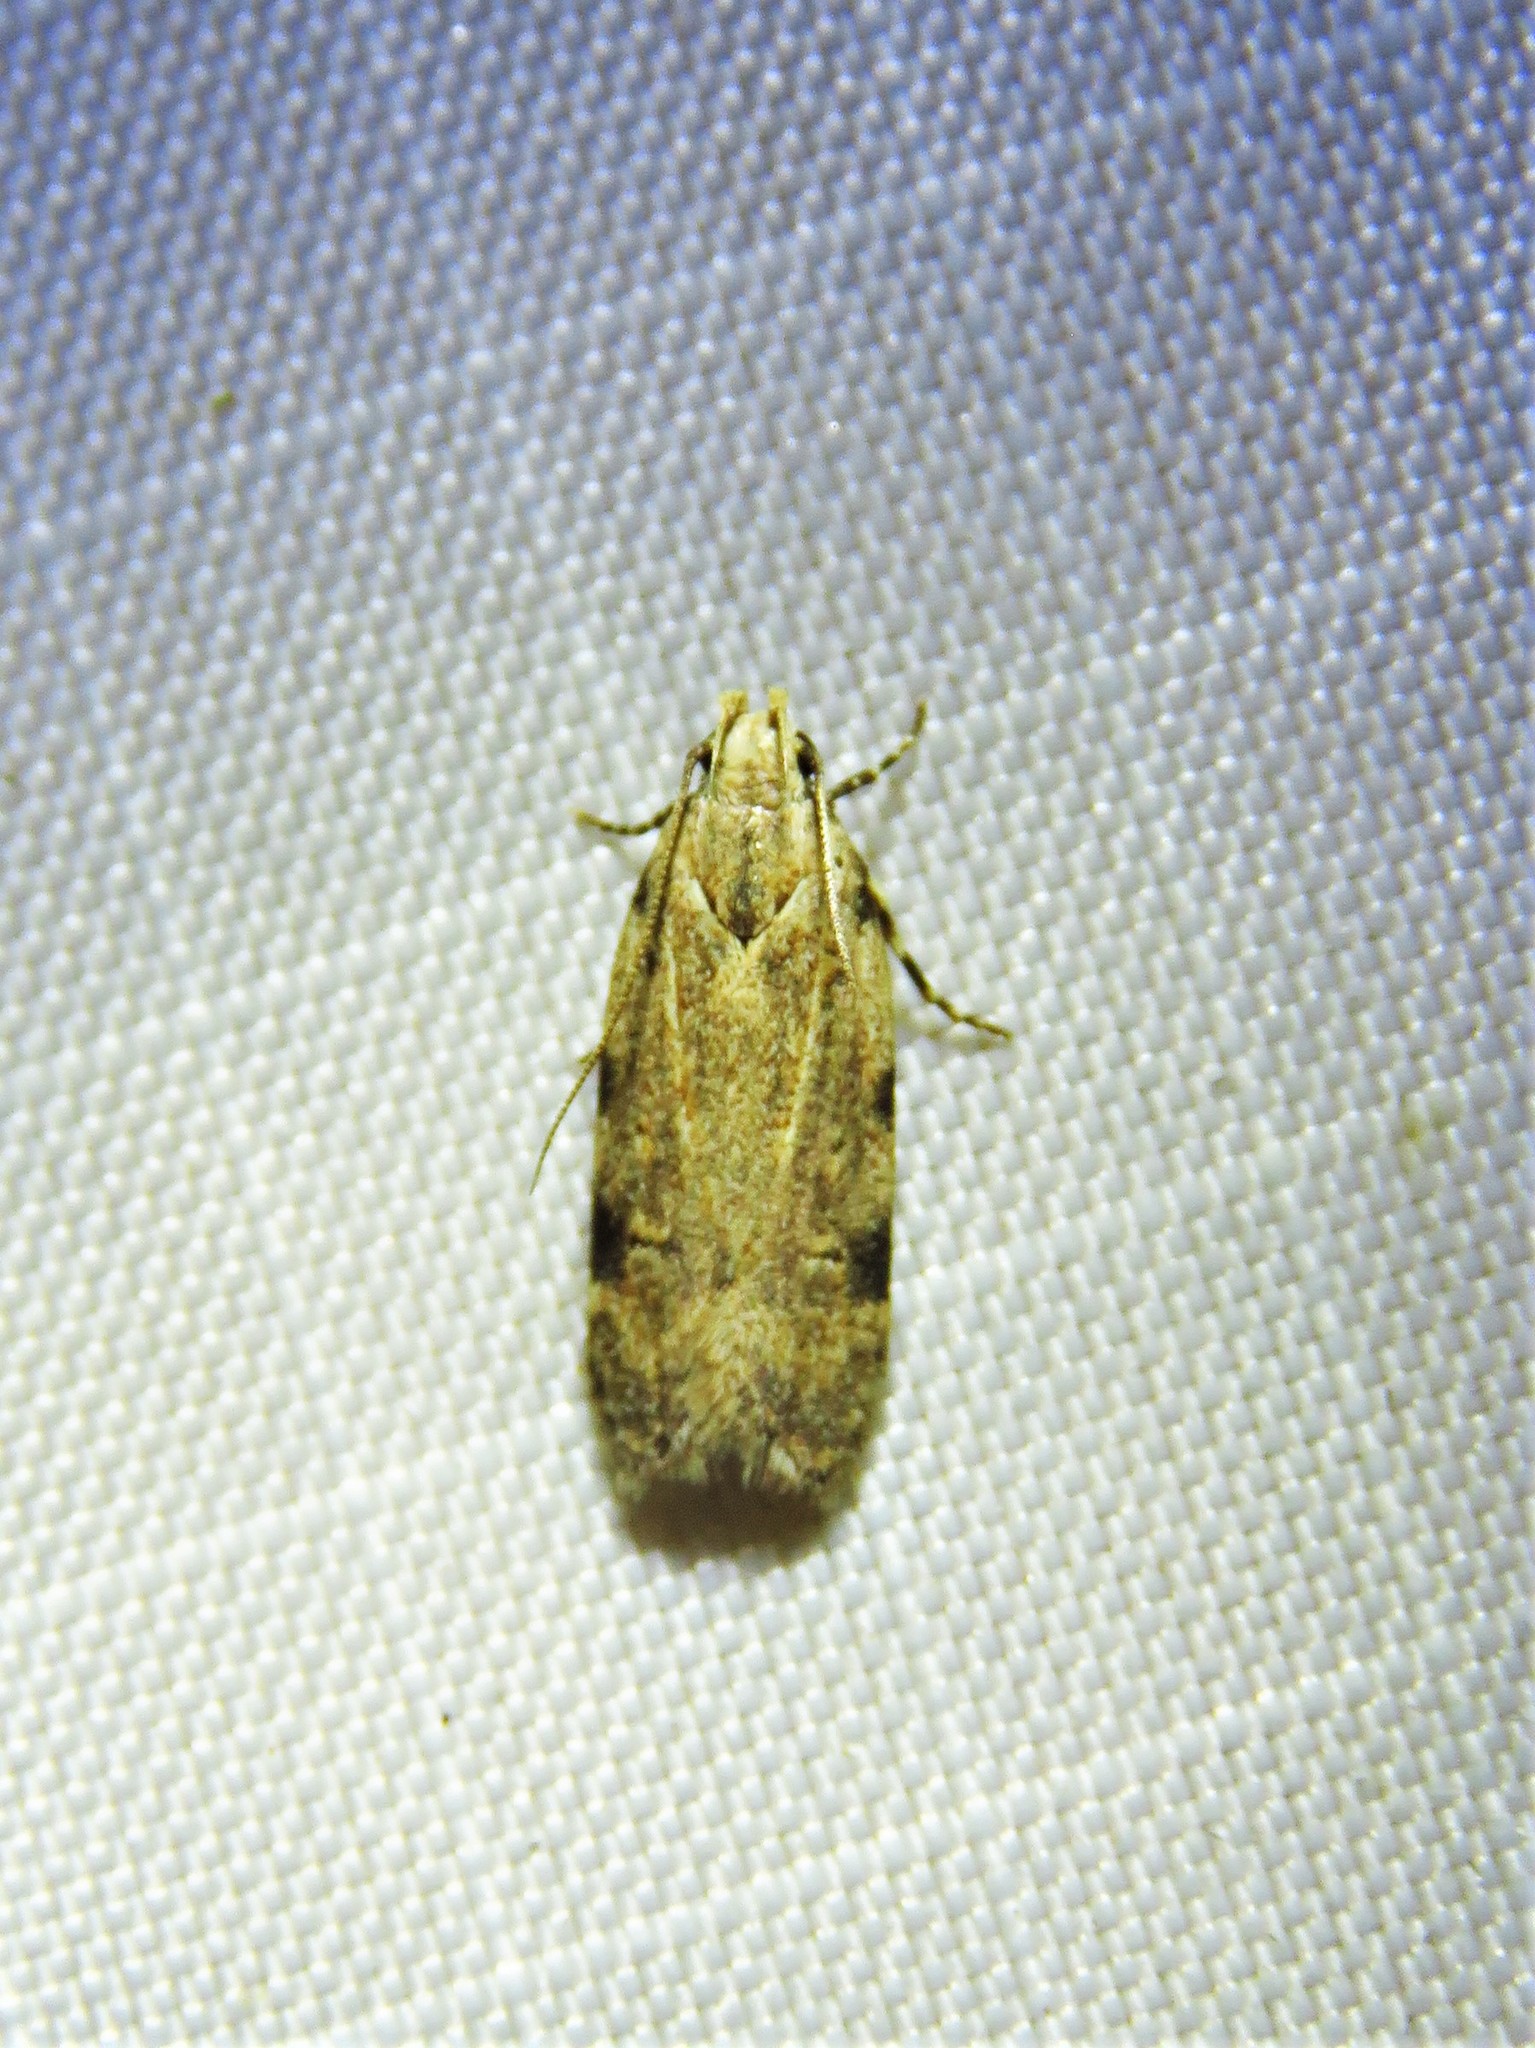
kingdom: Animalia
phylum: Arthropoda
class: Insecta
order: Lepidoptera
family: Gelechiidae
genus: Friseria
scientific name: Friseria cockerelli
